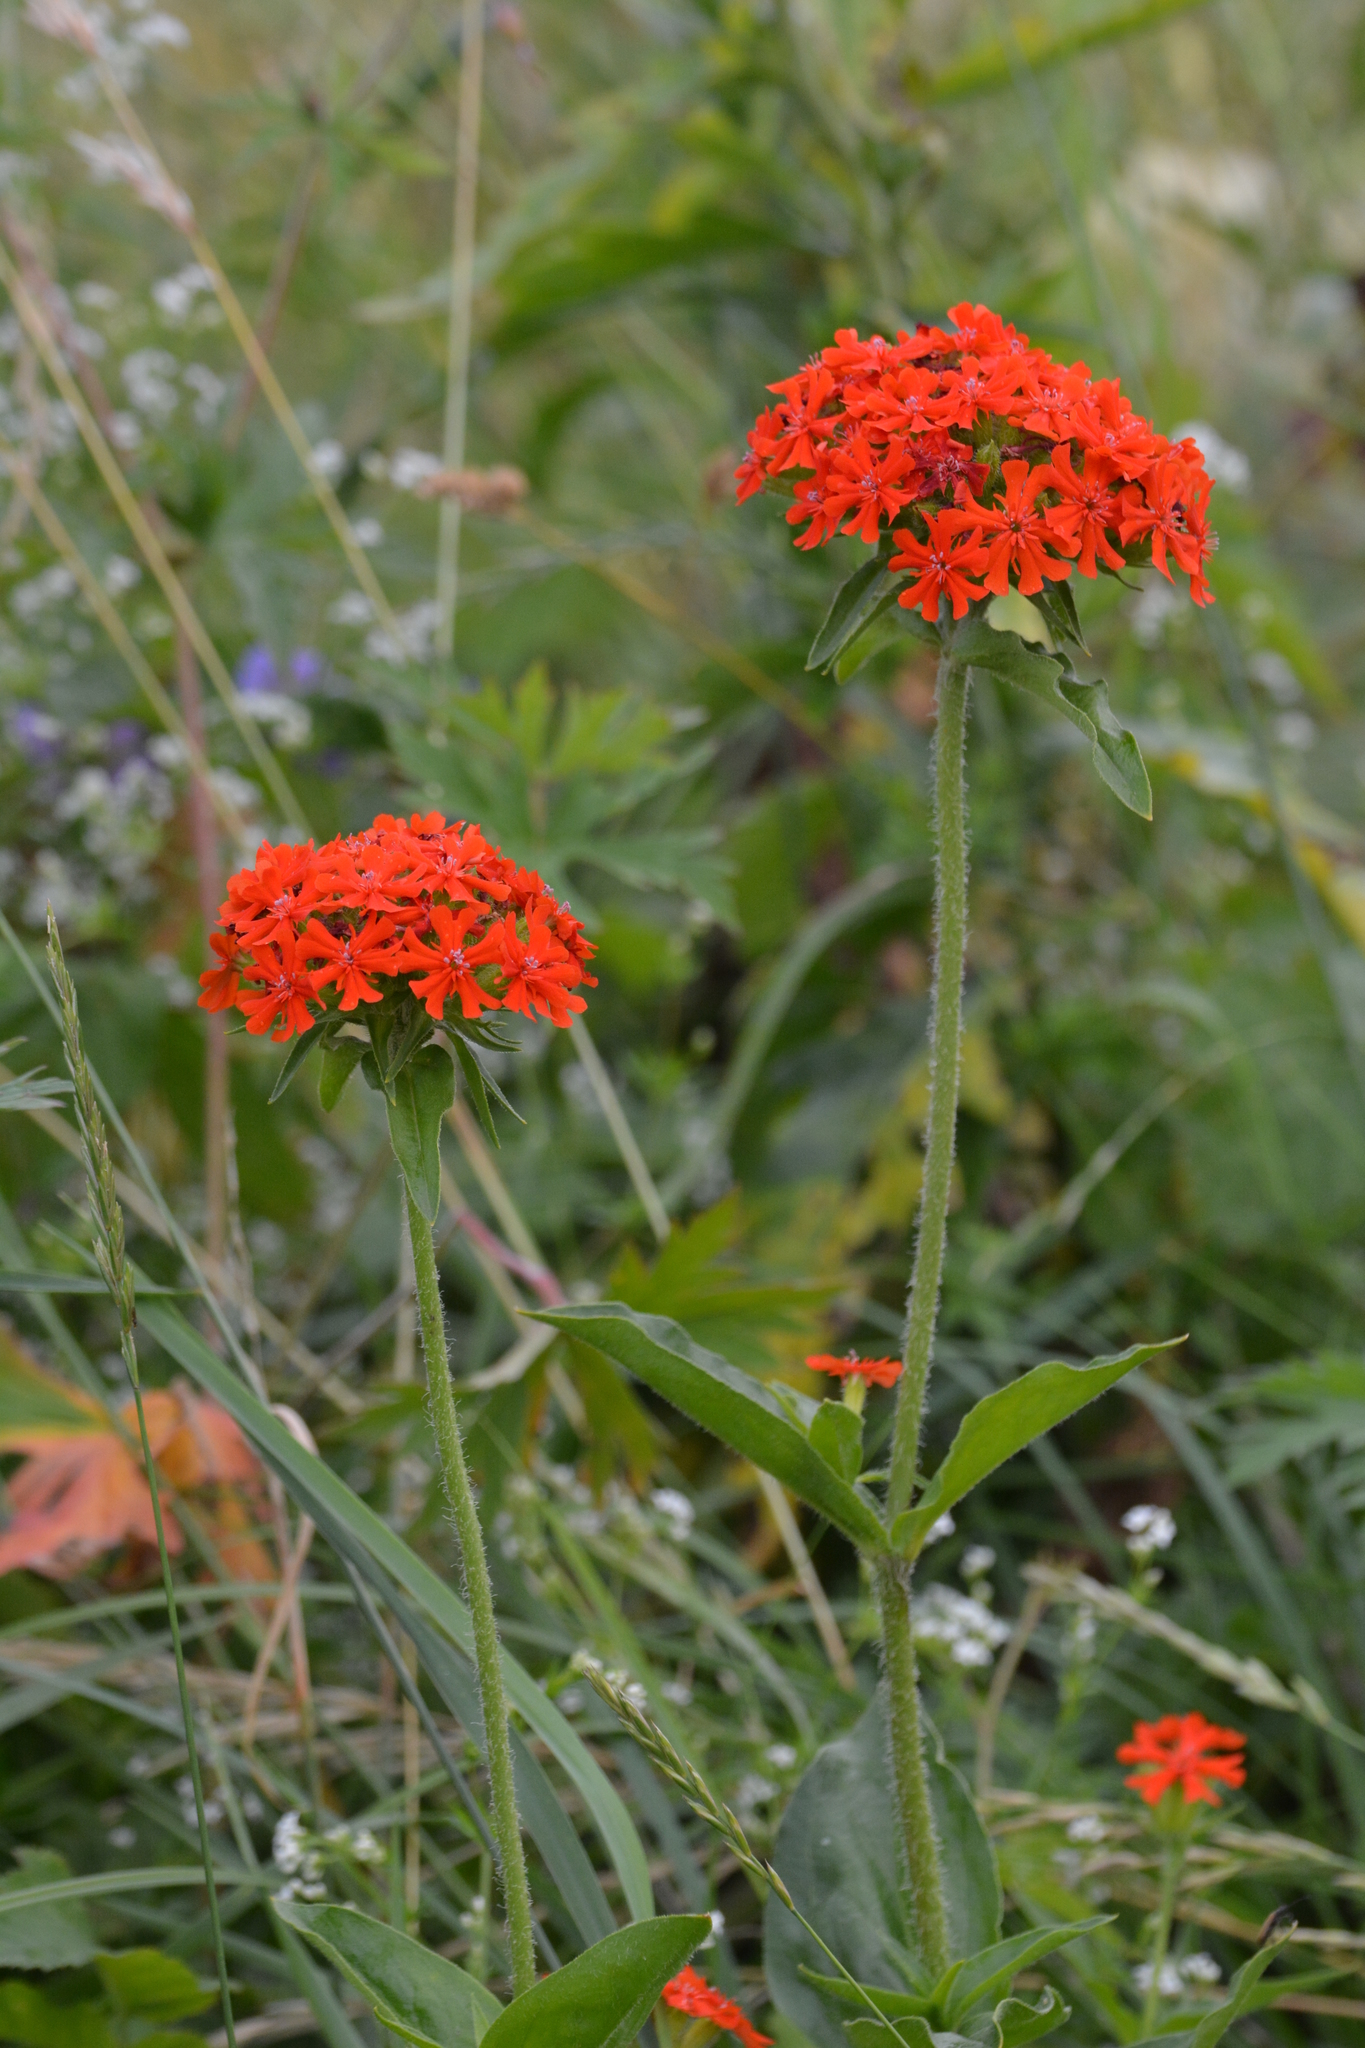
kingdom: Plantae
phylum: Tracheophyta
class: Magnoliopsida
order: Caryophyllales
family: Caryophyllaceae
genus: Silene
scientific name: Silene chalcedonica
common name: Maltese-cross
